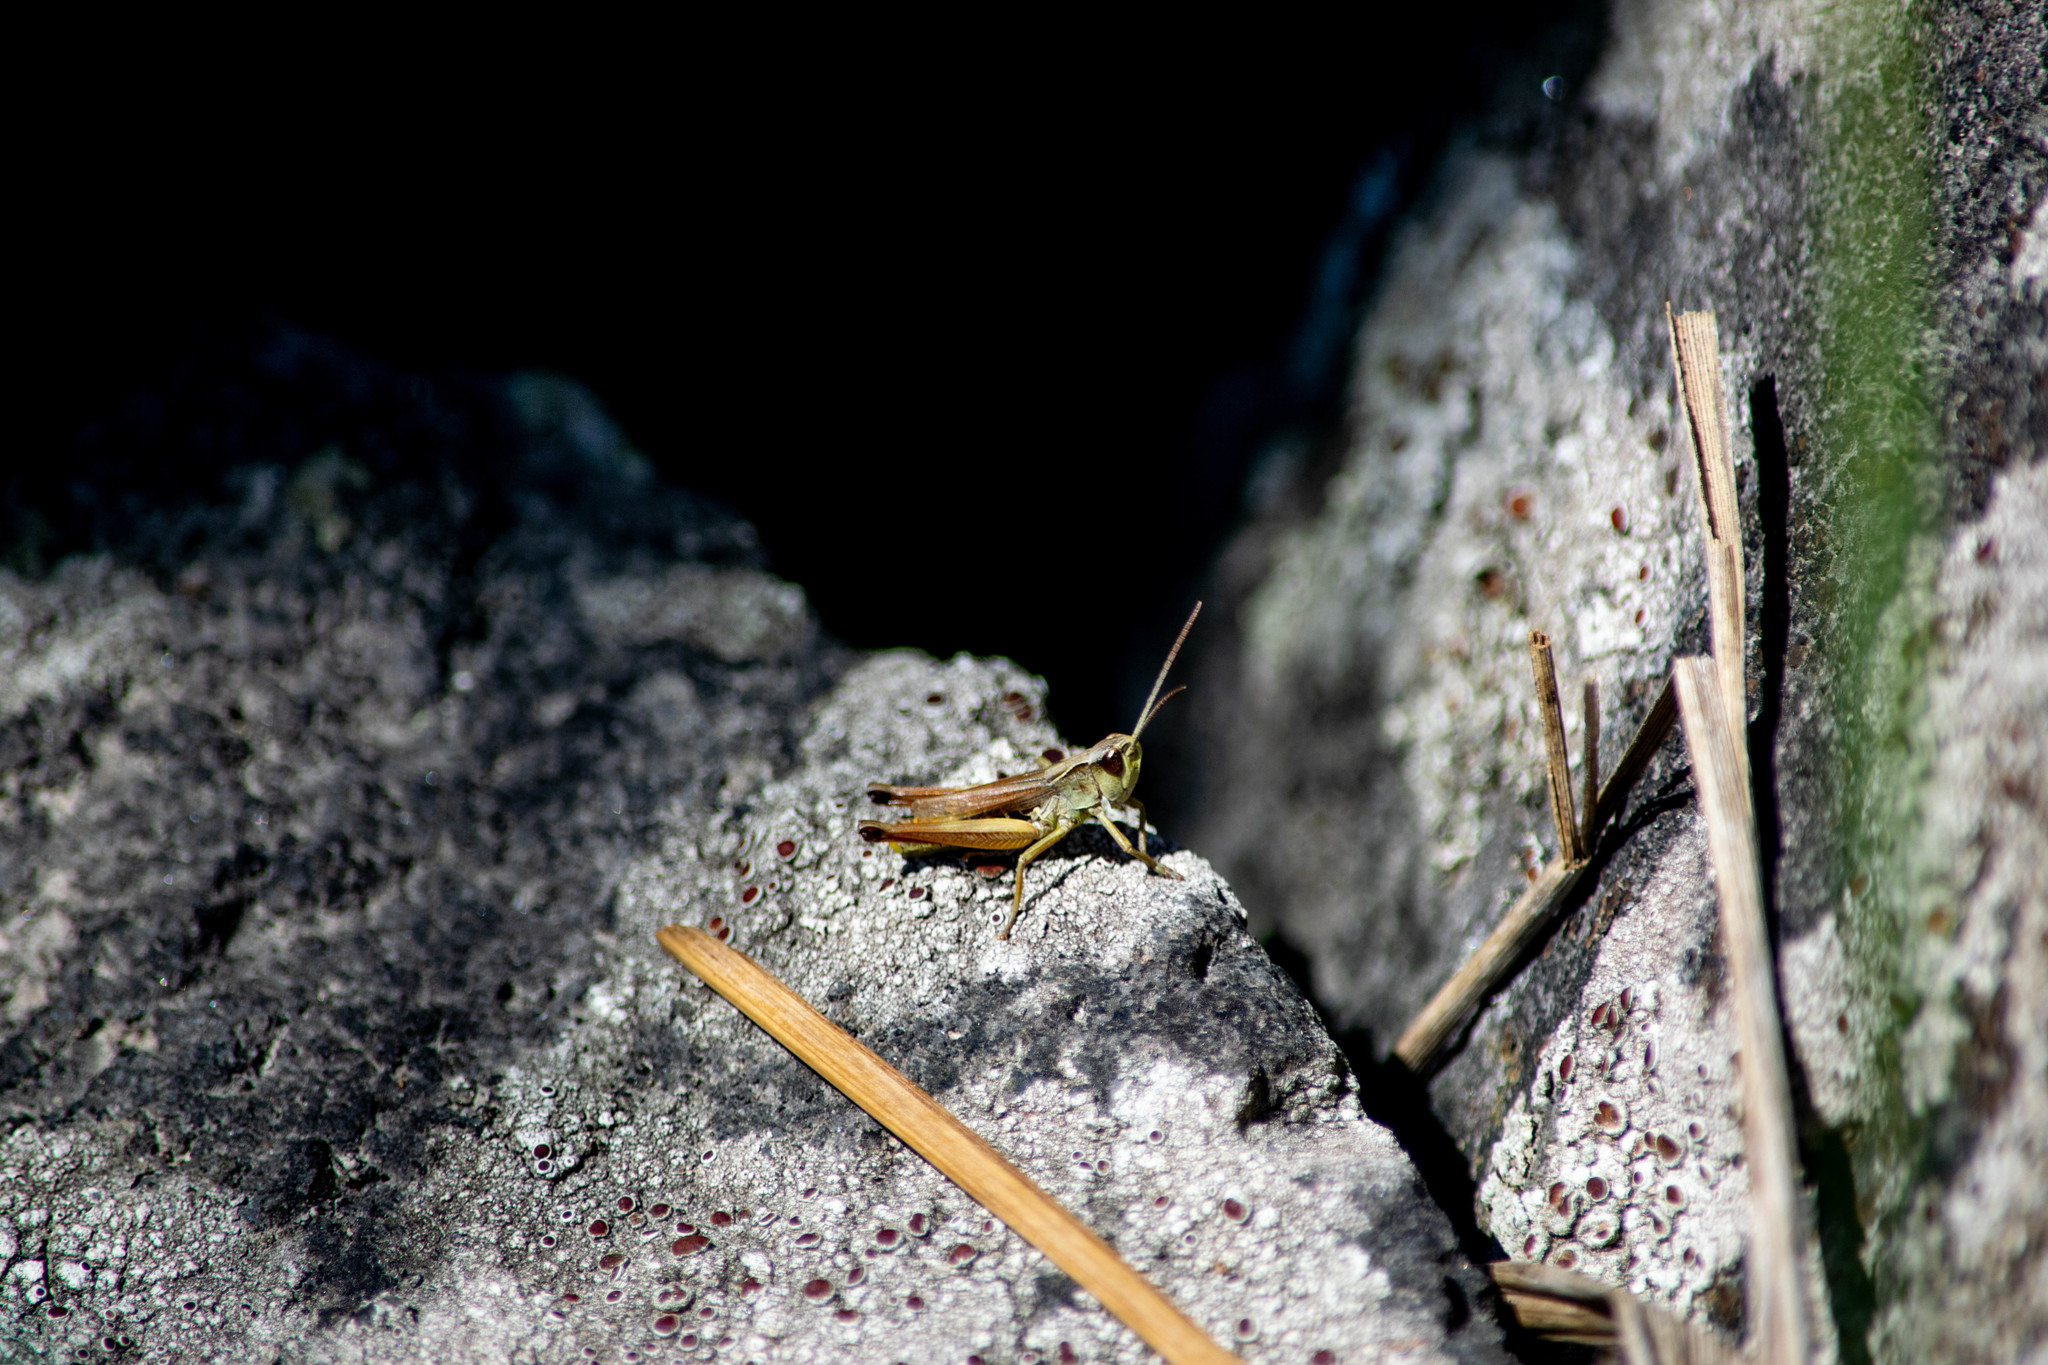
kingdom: Animalia
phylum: Arthropoda
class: Insecta
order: Orthoptera
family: Acrididae
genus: Pseudochorthippus
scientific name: Pseudochorthippus curtipennis
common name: Marsh meadow grasshopper
